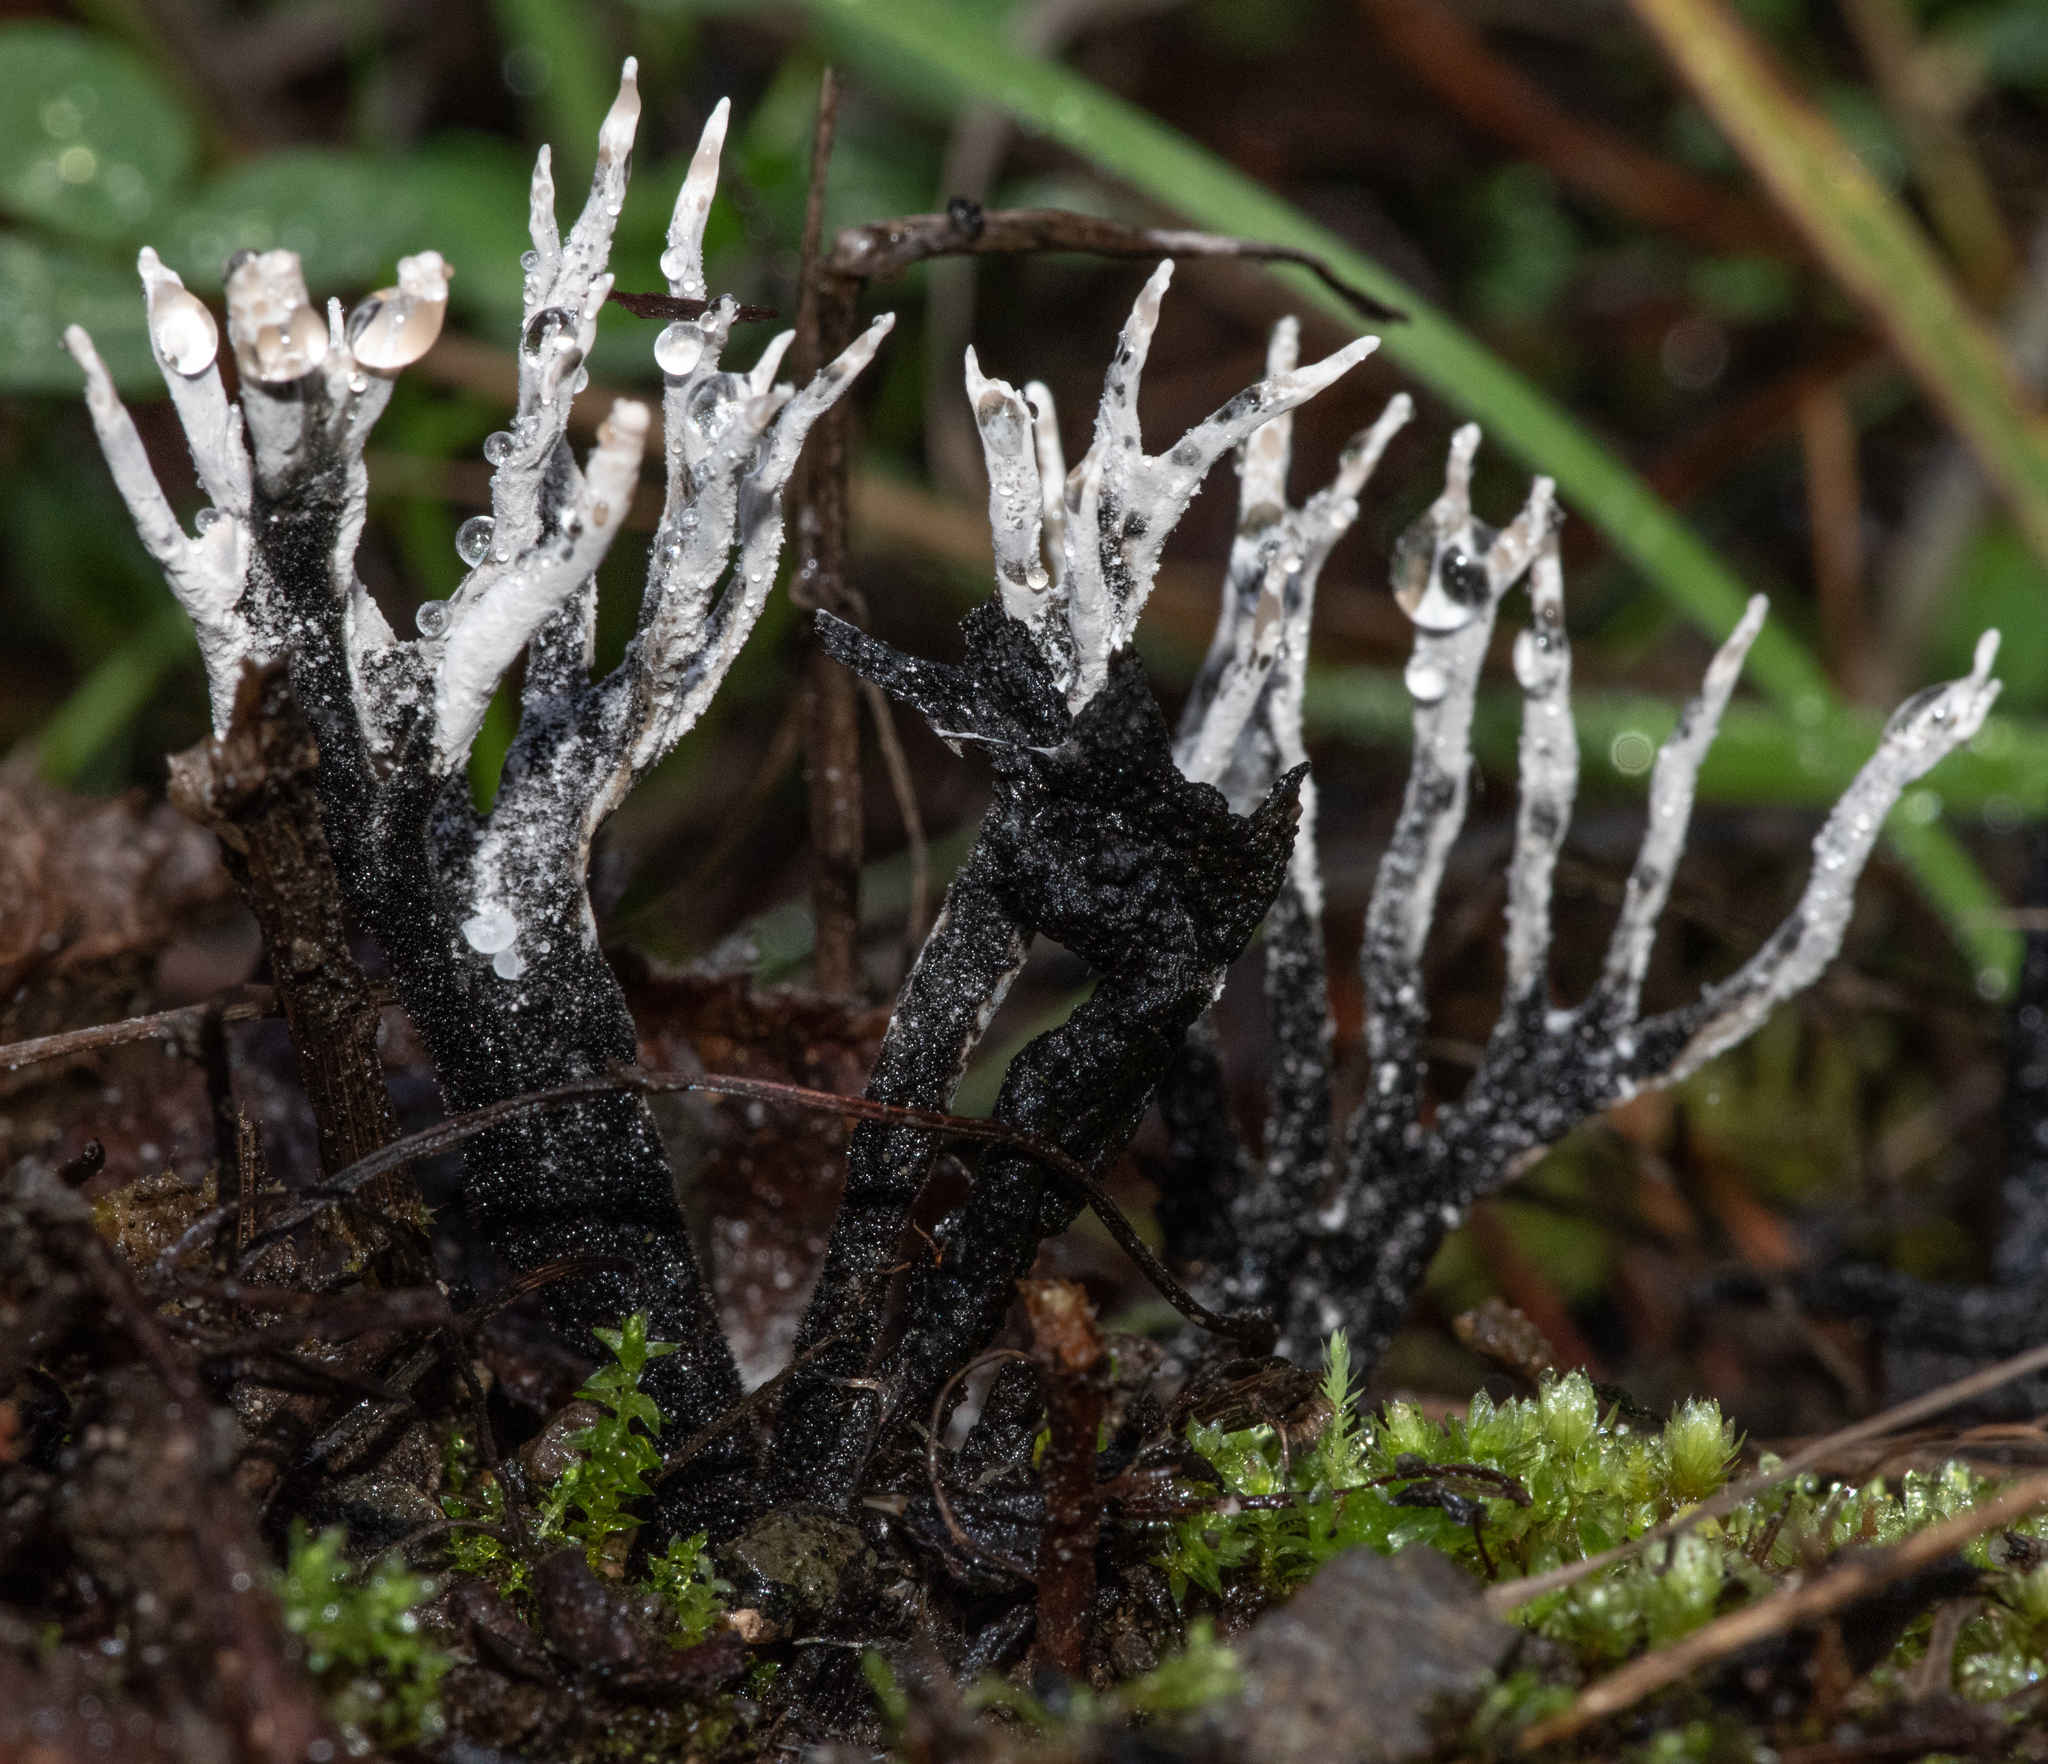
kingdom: Fungi
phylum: Ascomycota
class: Sordariomycetes
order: Xylariales
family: Xylariaceae
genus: Xylaria
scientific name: Xylaria hypoxylon
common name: Candle-snuff fungus
